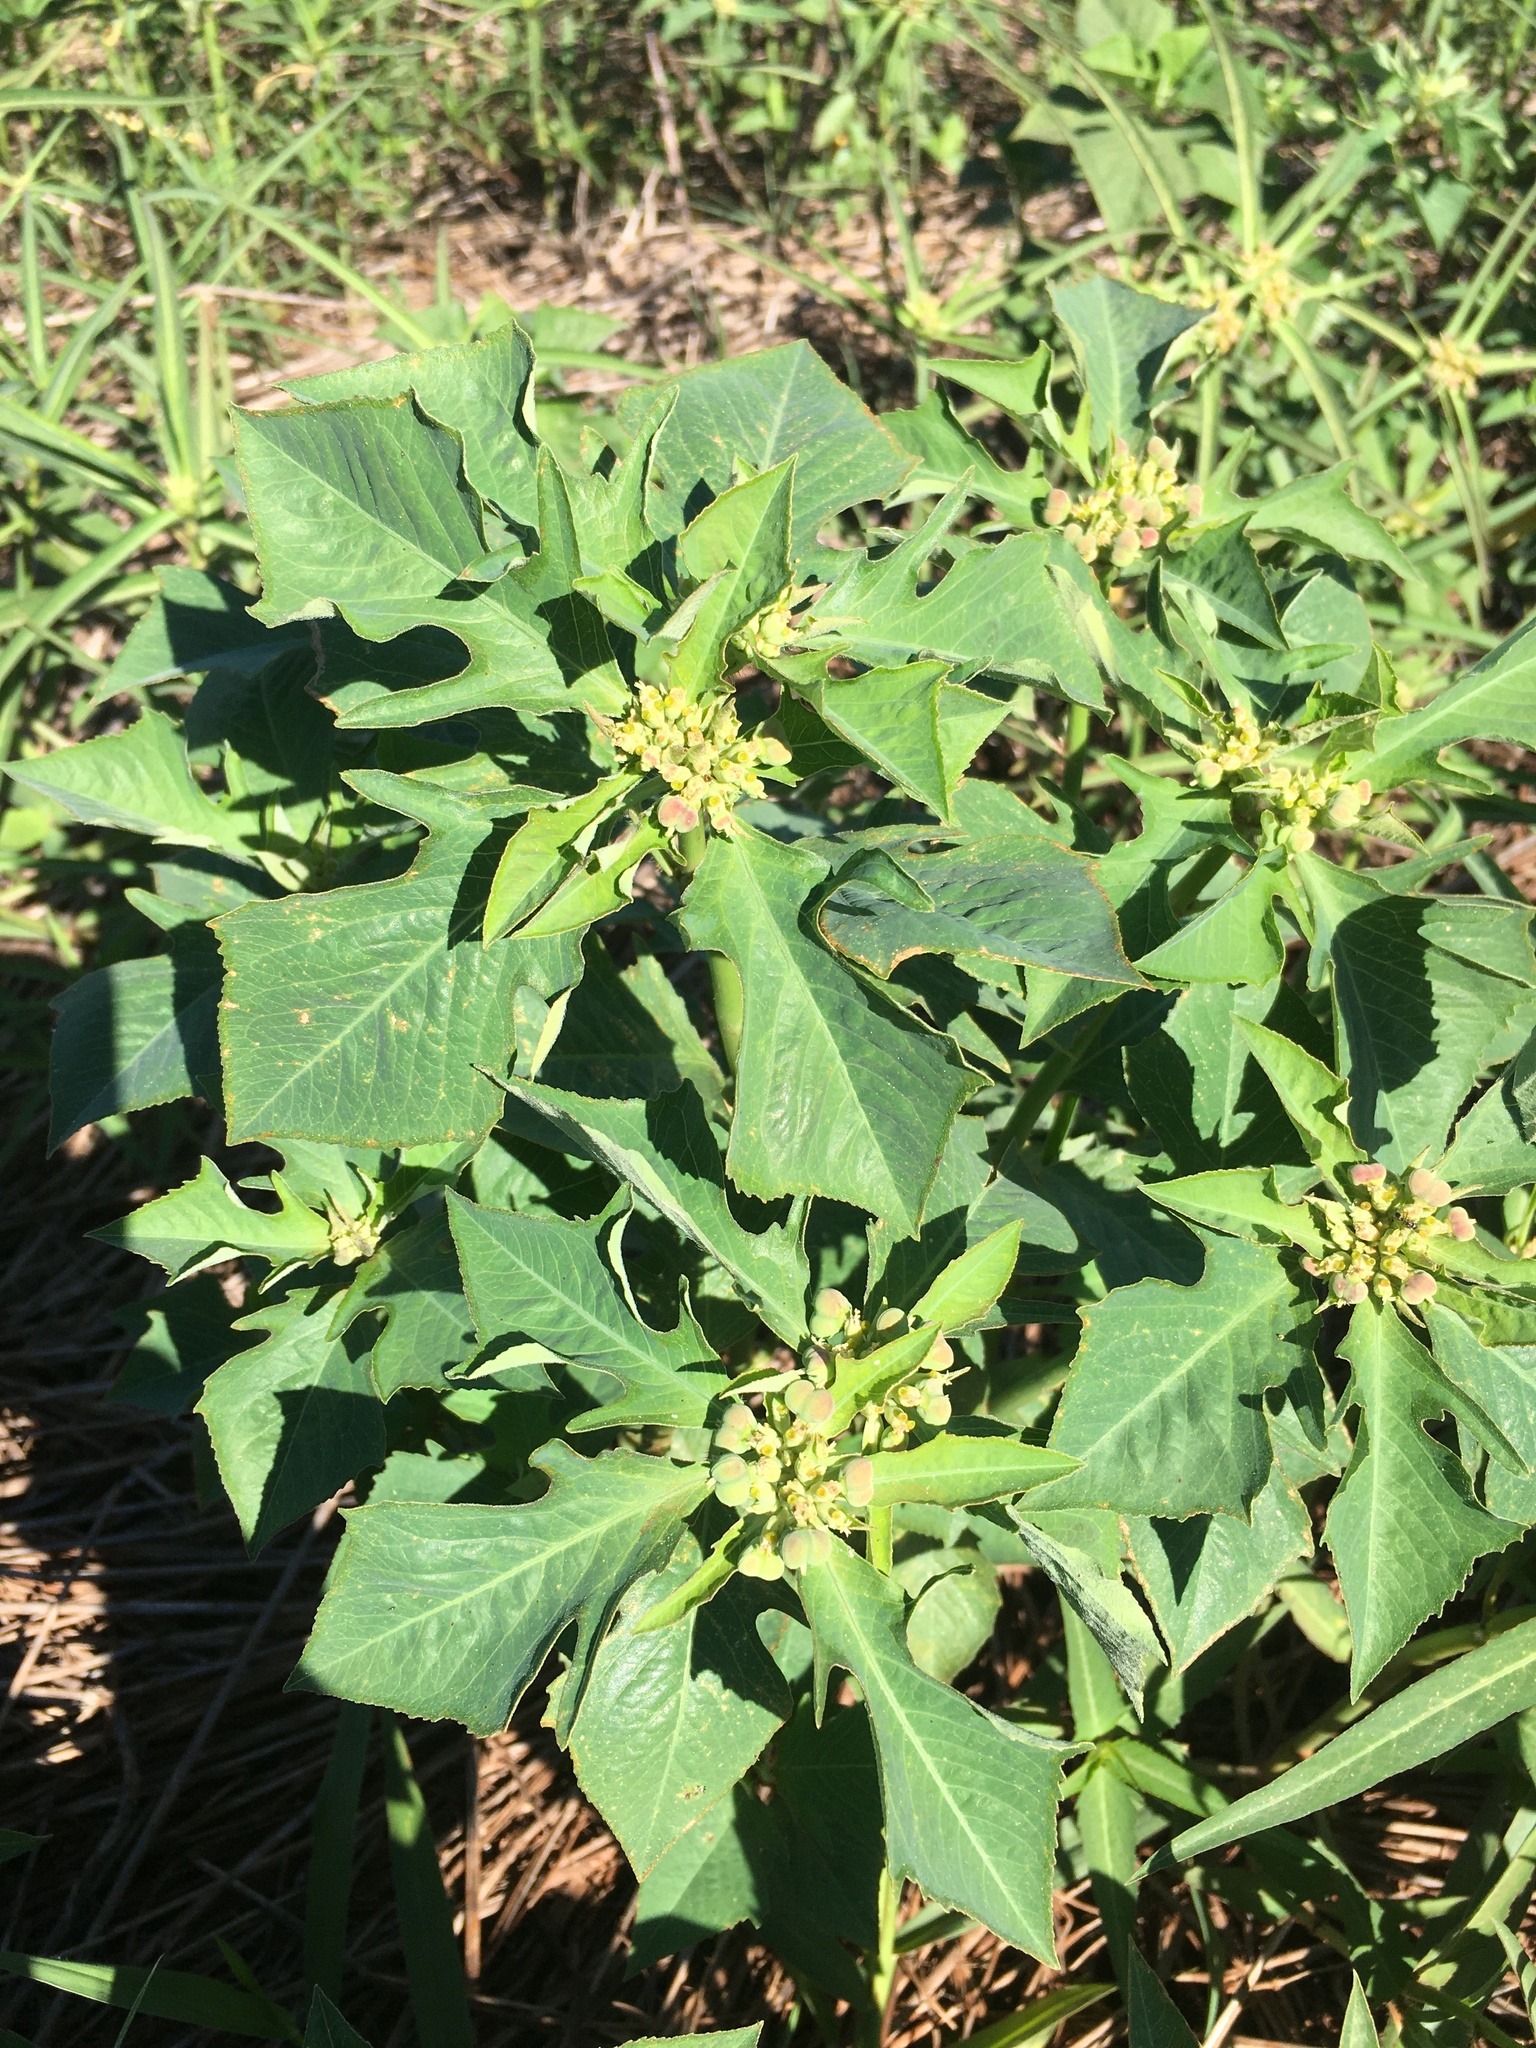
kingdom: Plantae
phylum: Tracheophyta
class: Magnoliopsida
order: Malpighiales
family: Euphorbiaceae
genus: Euphorbia
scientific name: Euphorbia heterophylla
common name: Mexican fireplant
